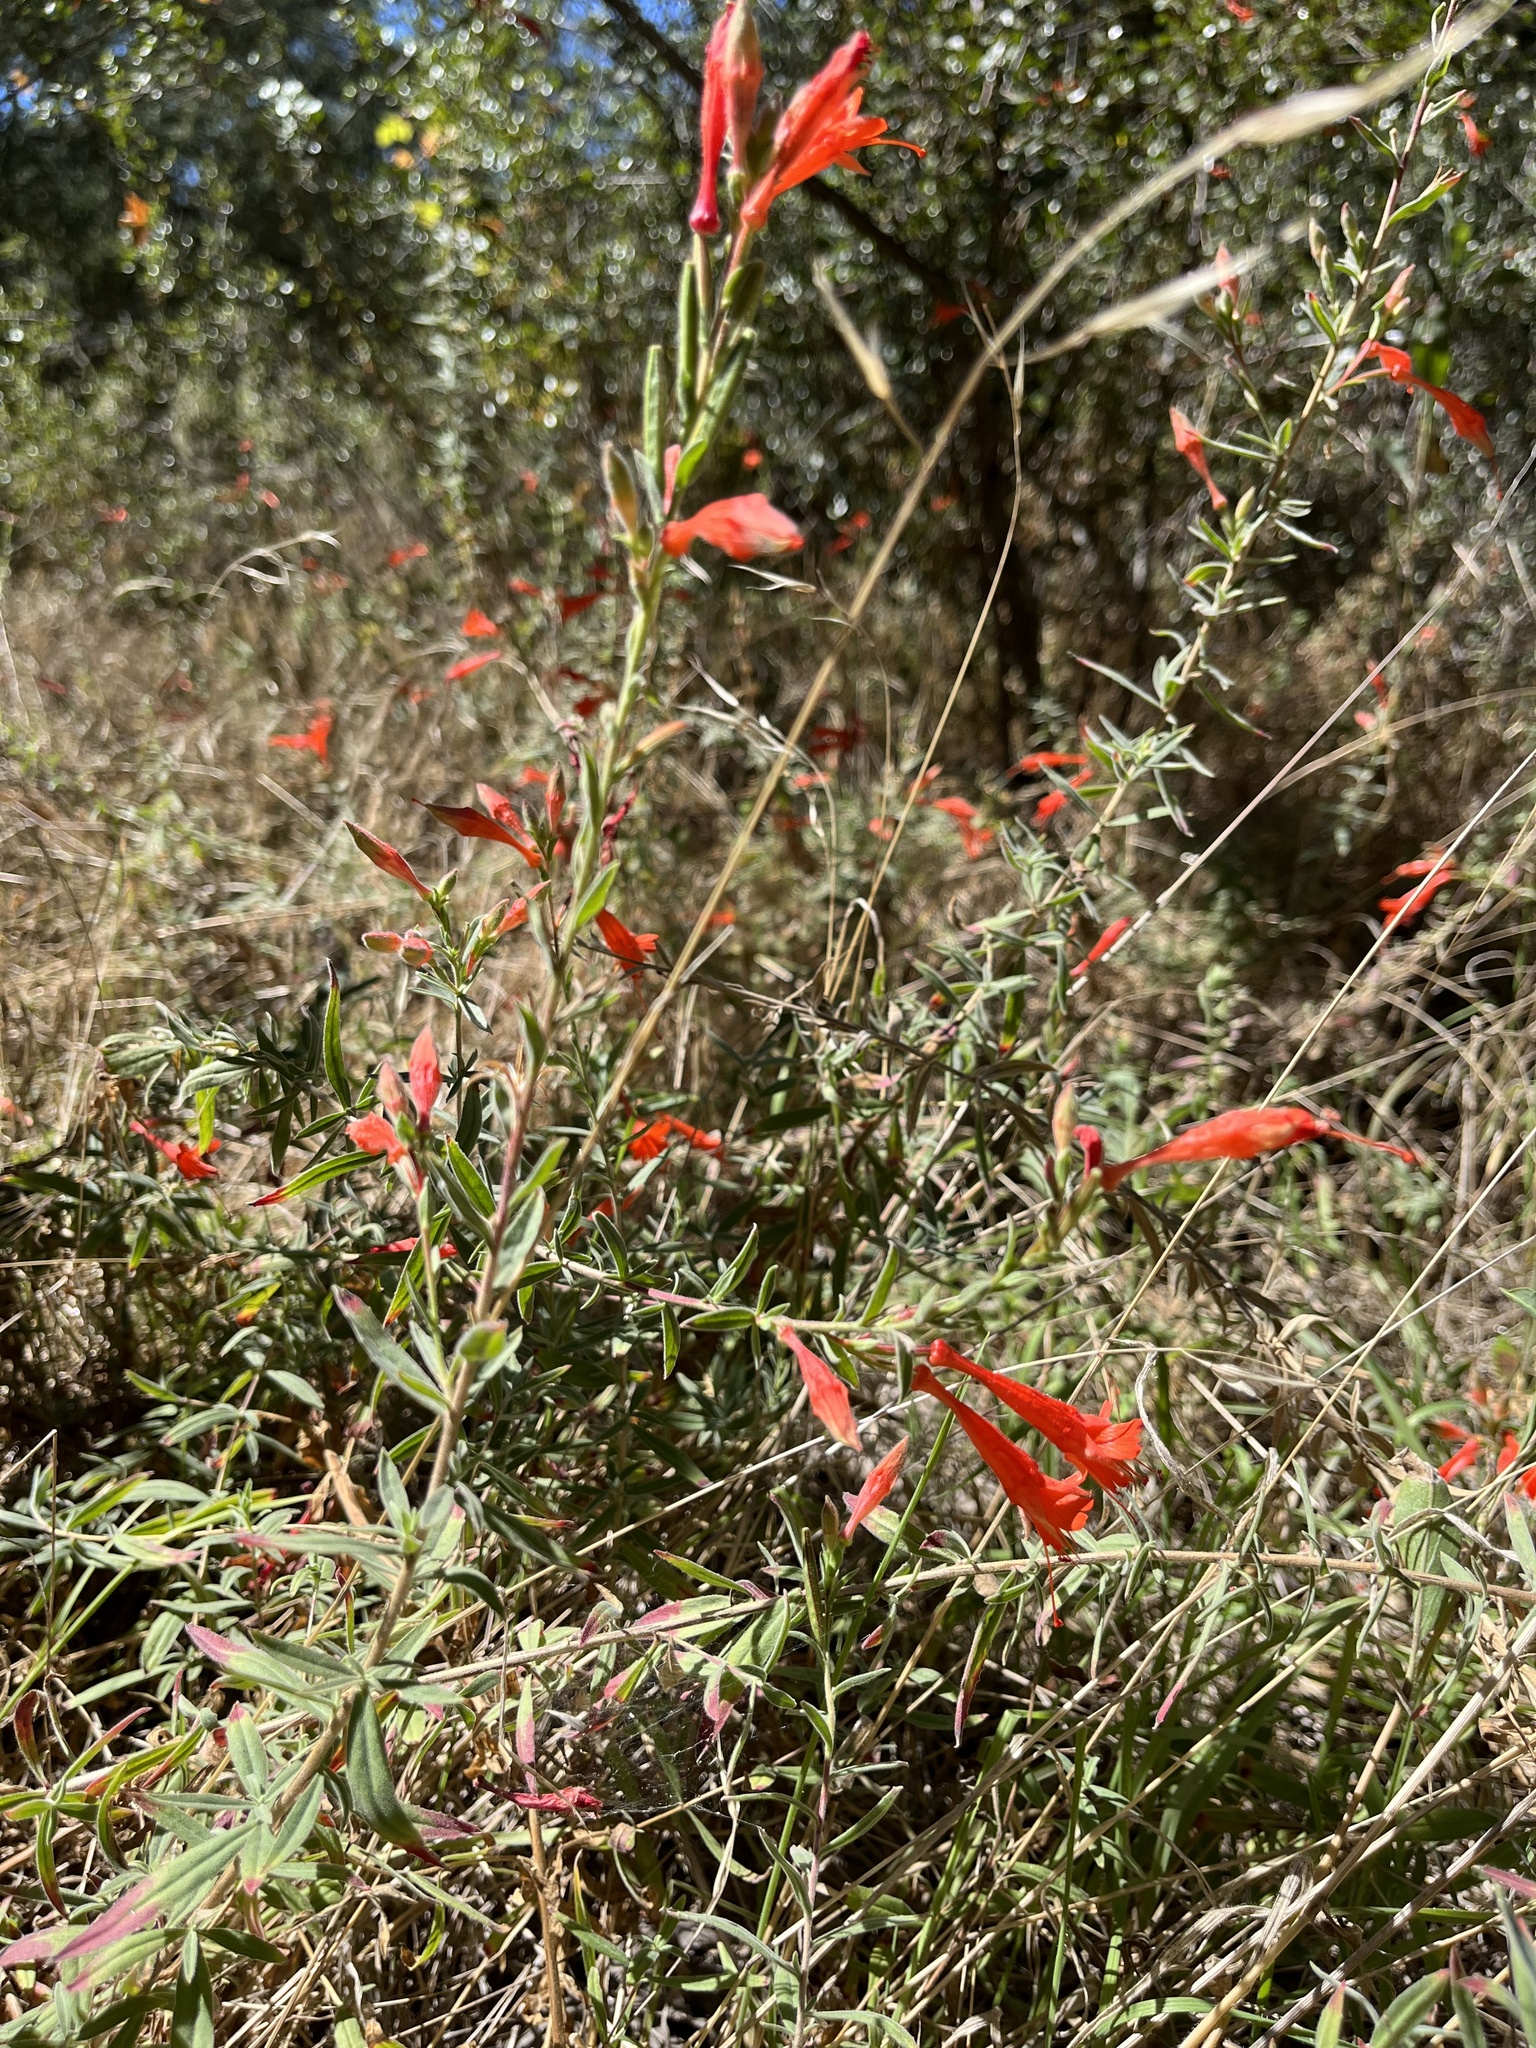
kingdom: Plantae
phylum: Tracheophyta
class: Magnoliopsida
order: Myrtales
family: Onagraceae
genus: Epilobium
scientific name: Epilobium canum
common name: California-fuchsia
